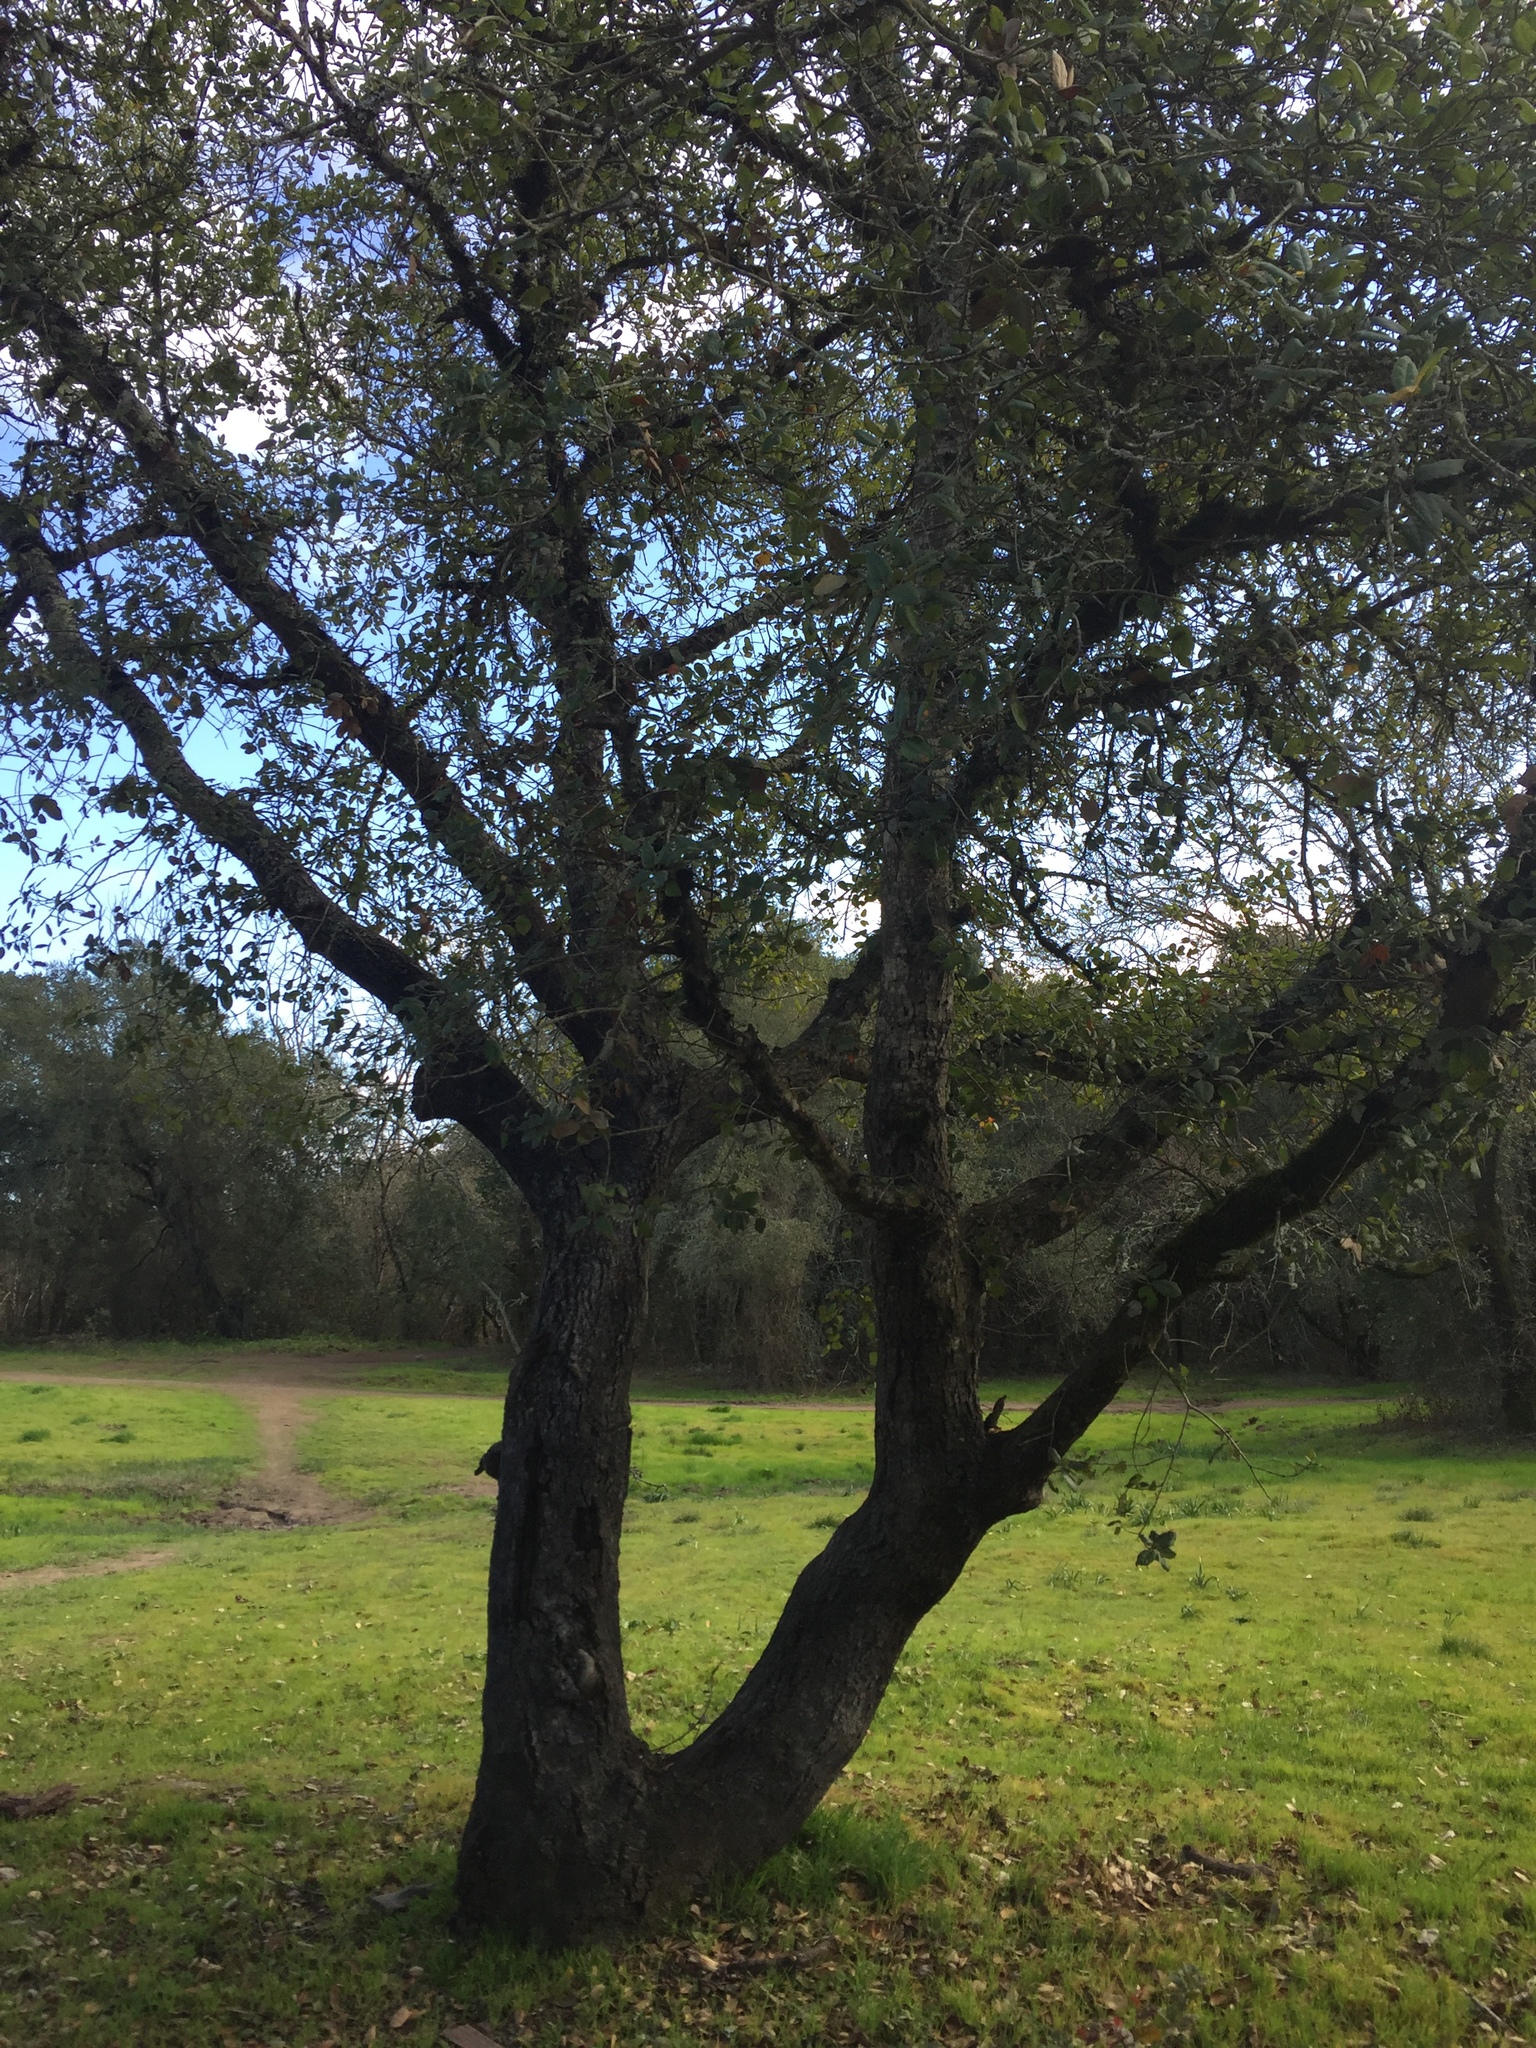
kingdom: Plantae
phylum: Tracheophyta
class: Magnoliopsida
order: Fagales
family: Fagaceae
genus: Quercus
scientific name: Quercus agrifolia
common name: California live oak
